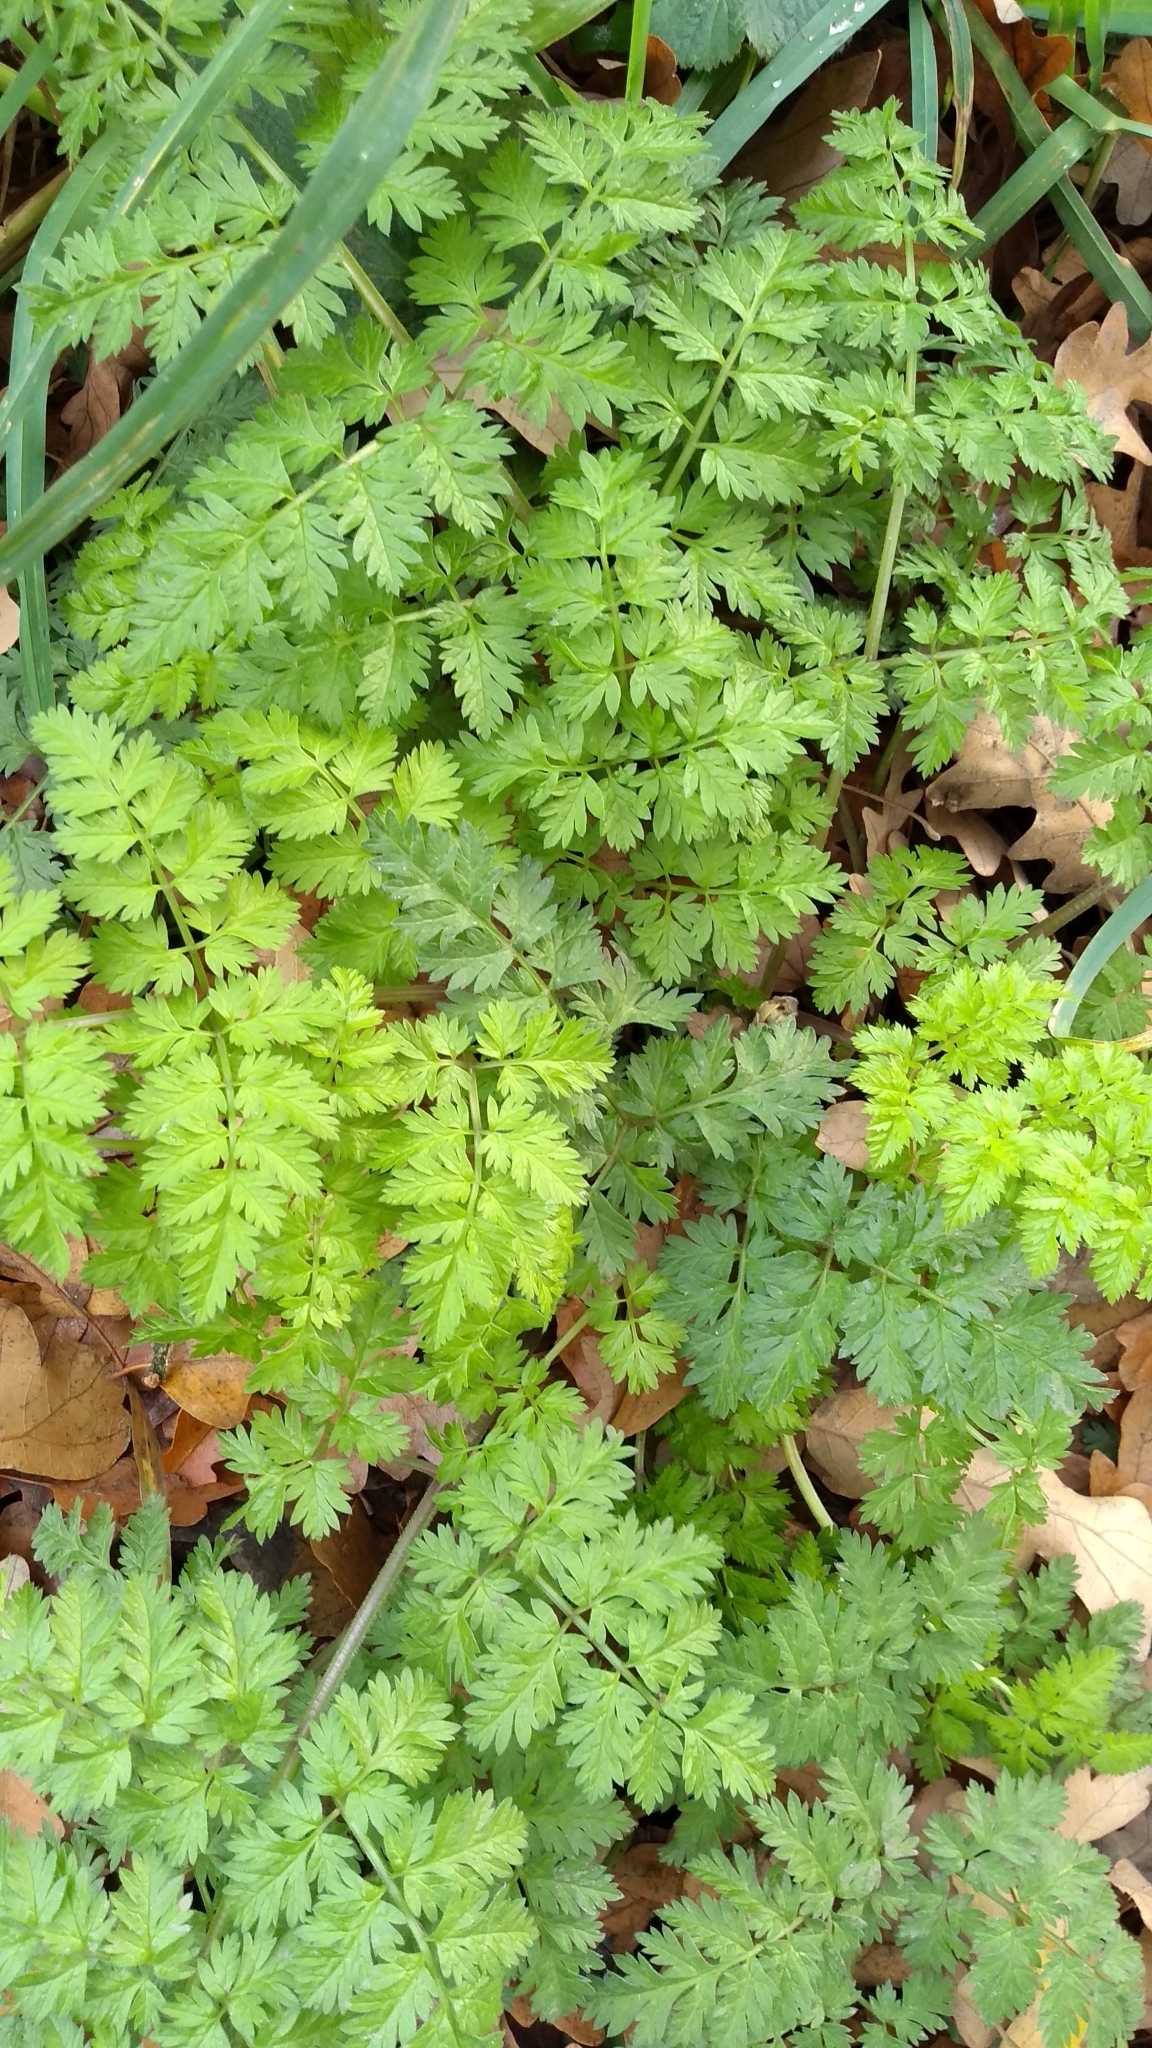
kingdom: Plantae
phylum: Tracheophyta
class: Magnoliopsida
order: Apiales
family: Apiaceae
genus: Anthriscus
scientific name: Anthriscus sylvestris
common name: Cow parsley
